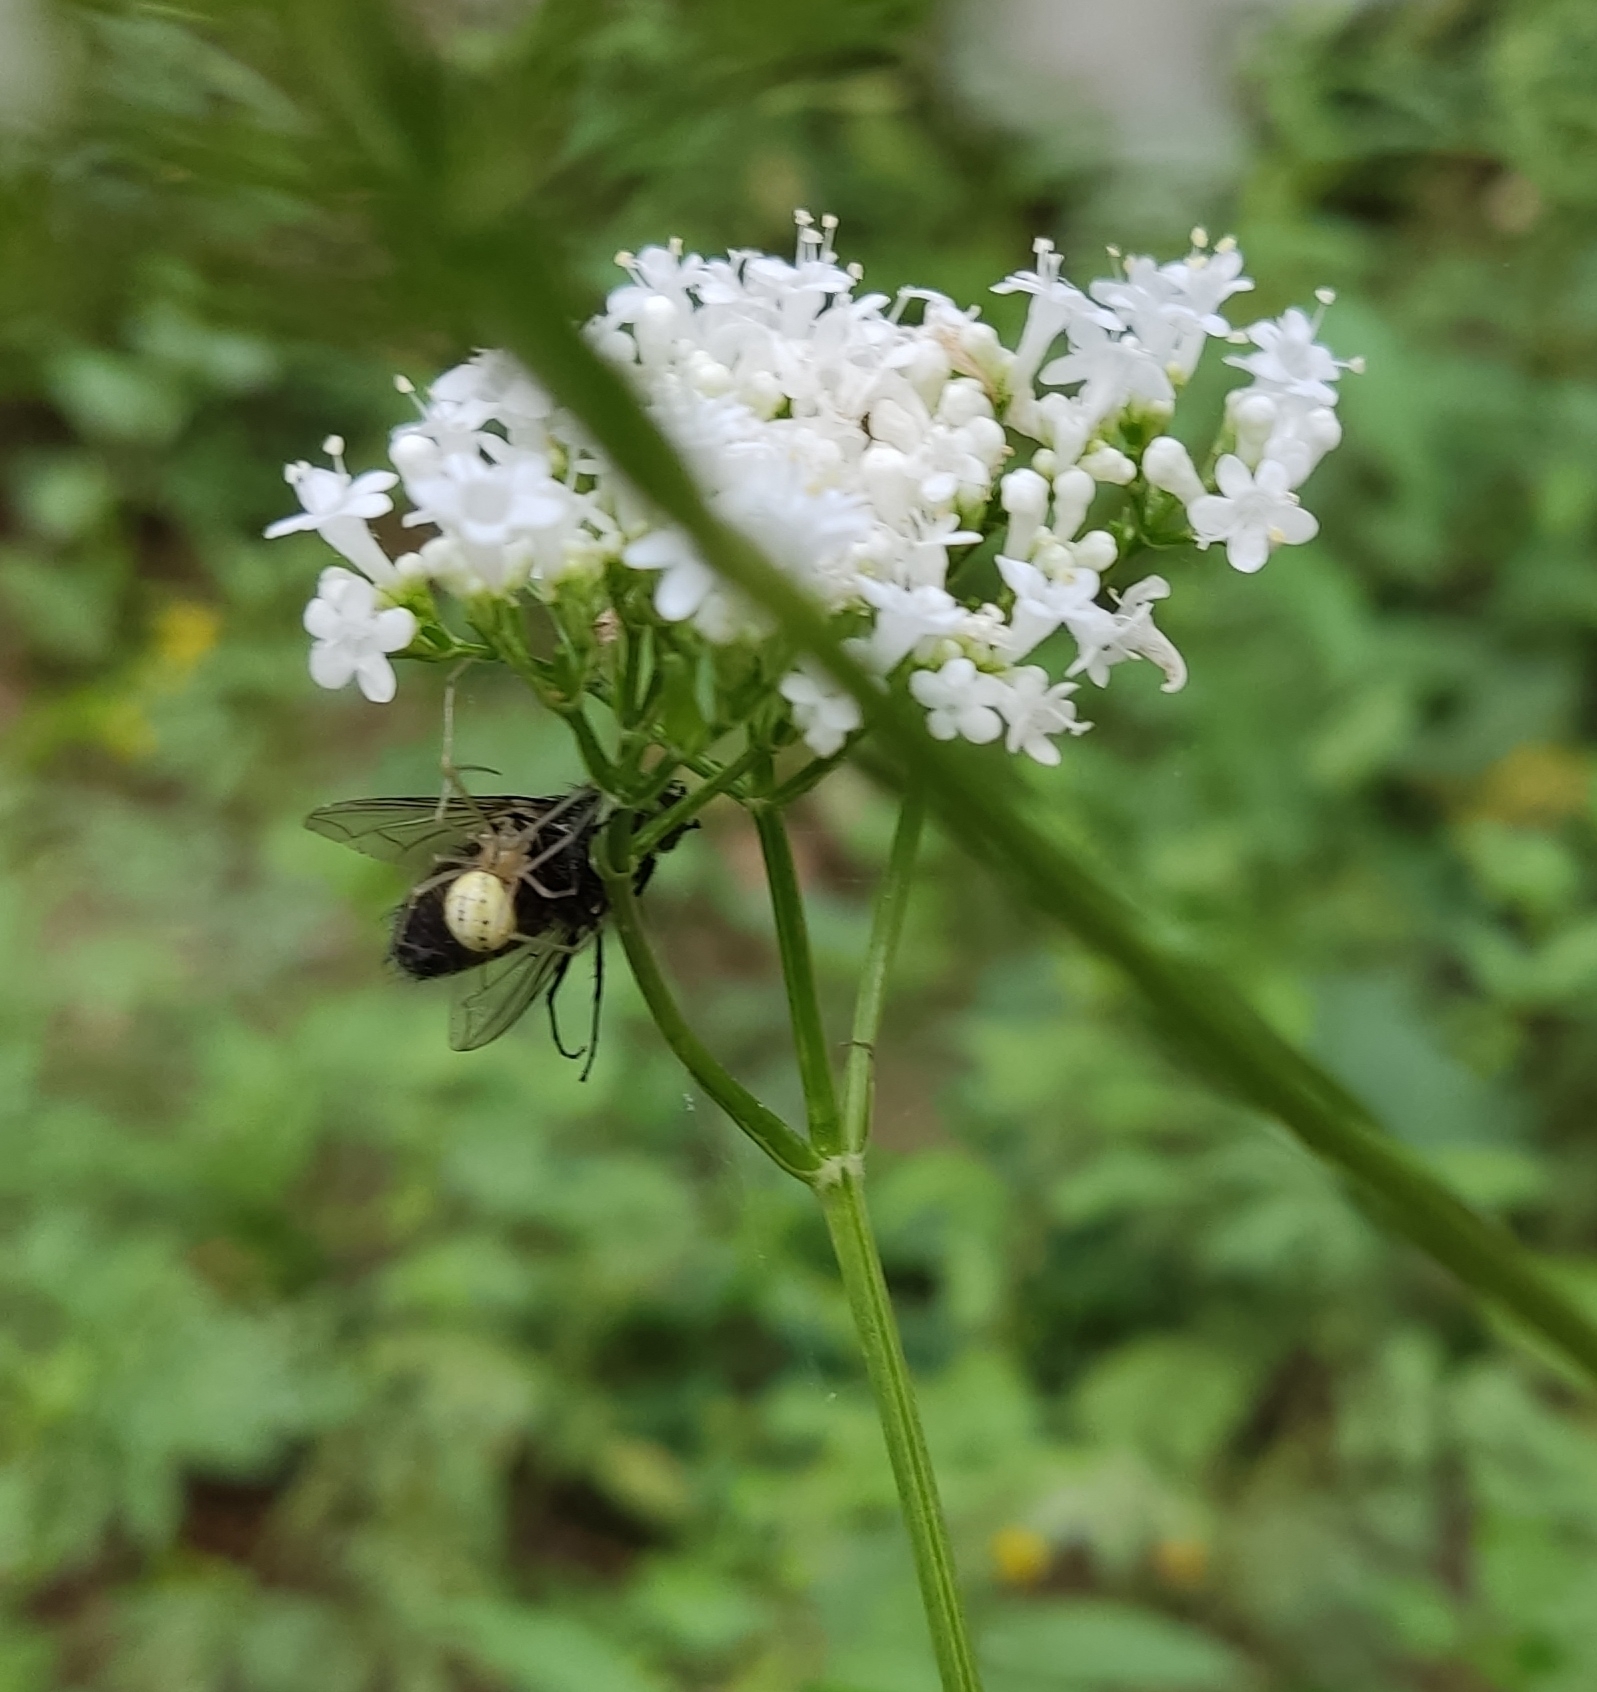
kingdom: Animalia
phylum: Arthropoda
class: Arachnida
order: Araneae
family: Theridiidae
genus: Enoplognatha
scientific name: Enoplognatha ovata
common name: Common candy-striped spider
